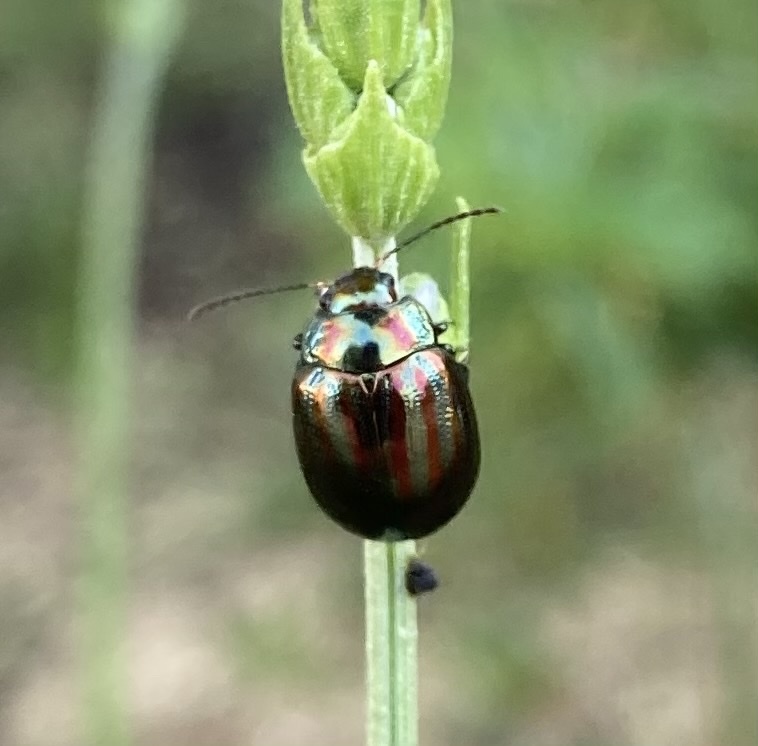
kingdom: Animalia
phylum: Arthropoda
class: Insecta
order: Coleoptera
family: Chrysomelidae
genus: Chrysolina
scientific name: Chrysolina americana
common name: Rosemary beetle
